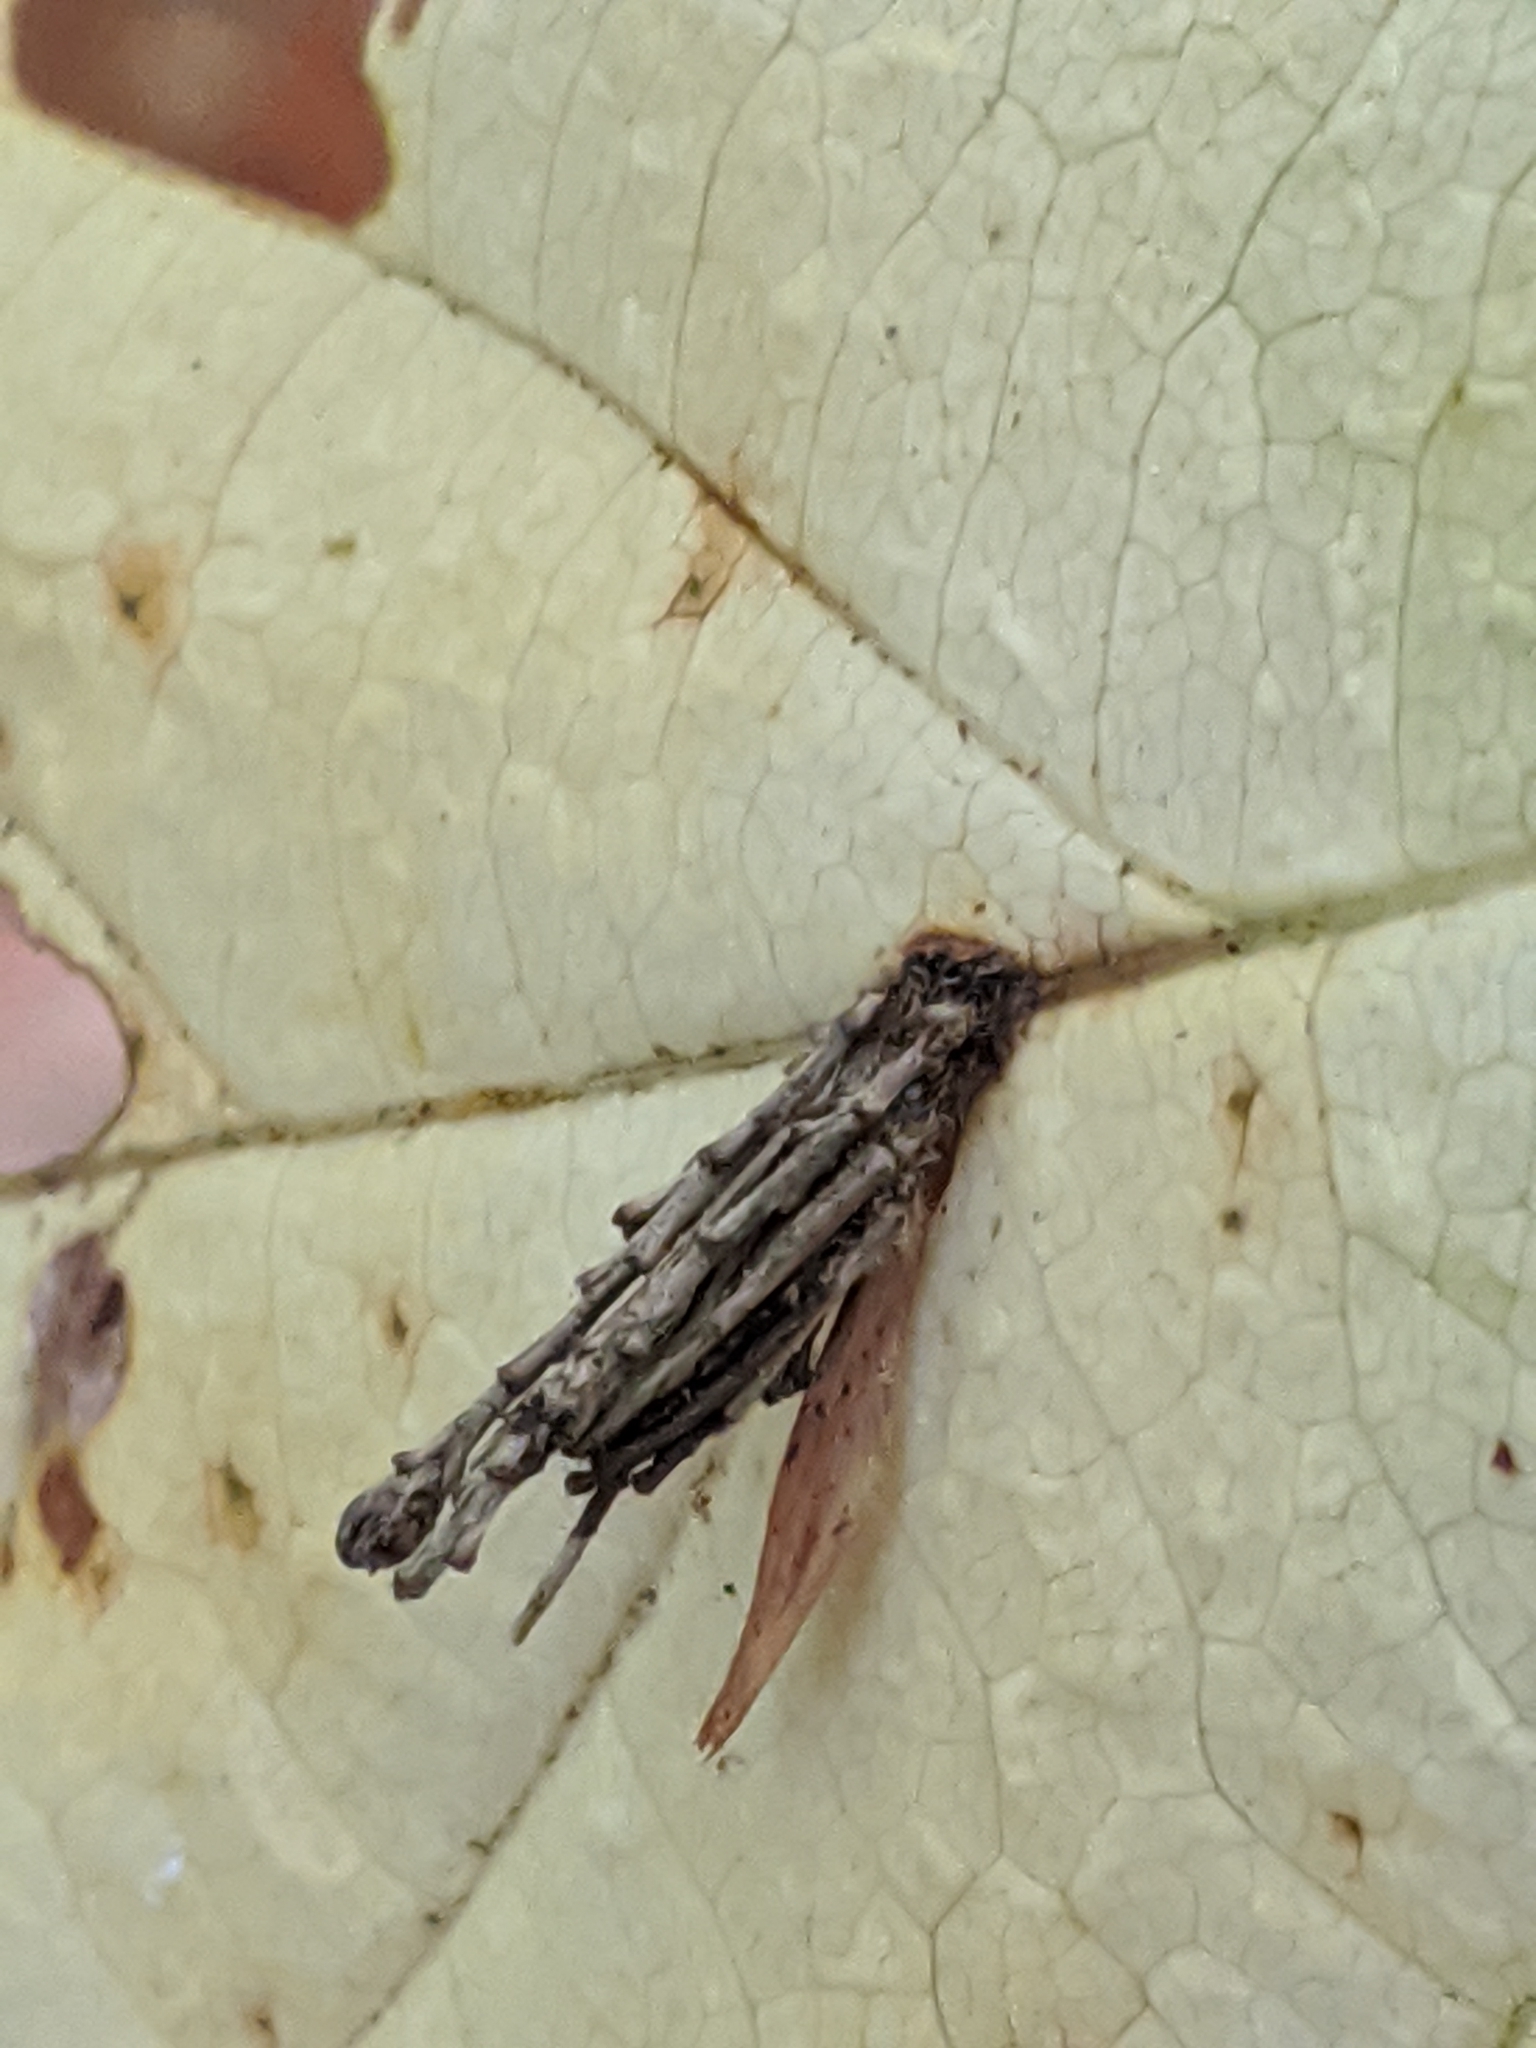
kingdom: Animalia
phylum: Arthropoda
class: Insecta
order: Lepidoptera
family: Psychidae
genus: Psyche
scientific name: Psyche casta
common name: Common sweep
